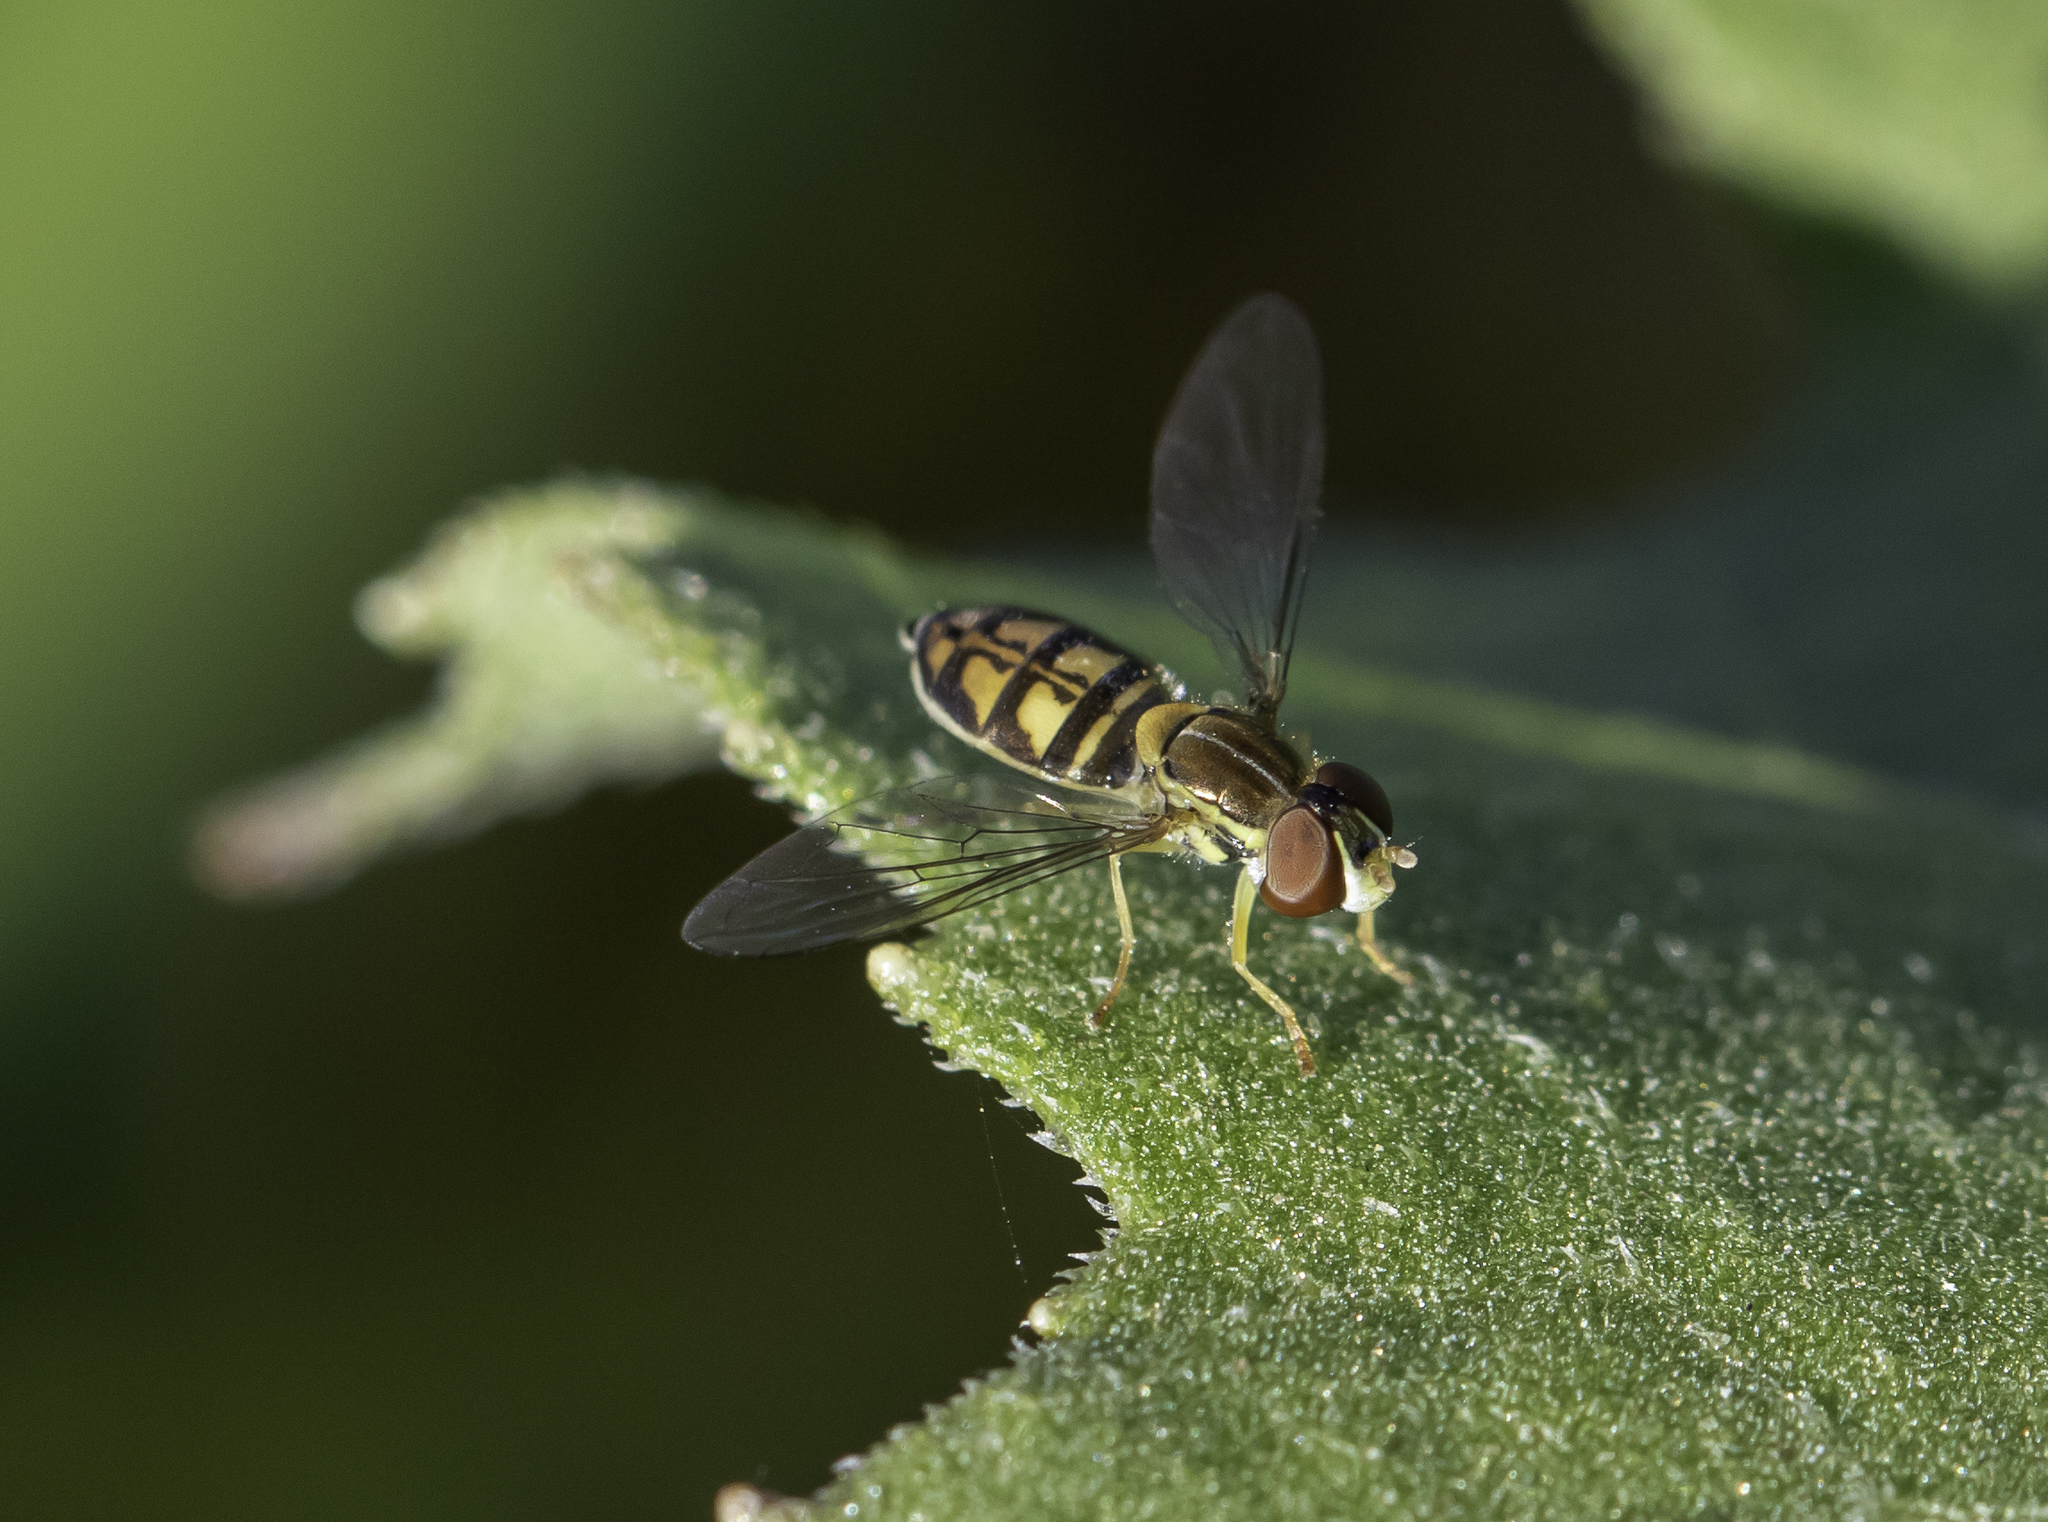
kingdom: Animalia
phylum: Arthropoda
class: Insecta
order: Diptera
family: Syrphidae
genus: Toxomerus
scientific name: Toxomerus marginatus
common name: Syrphid fly
